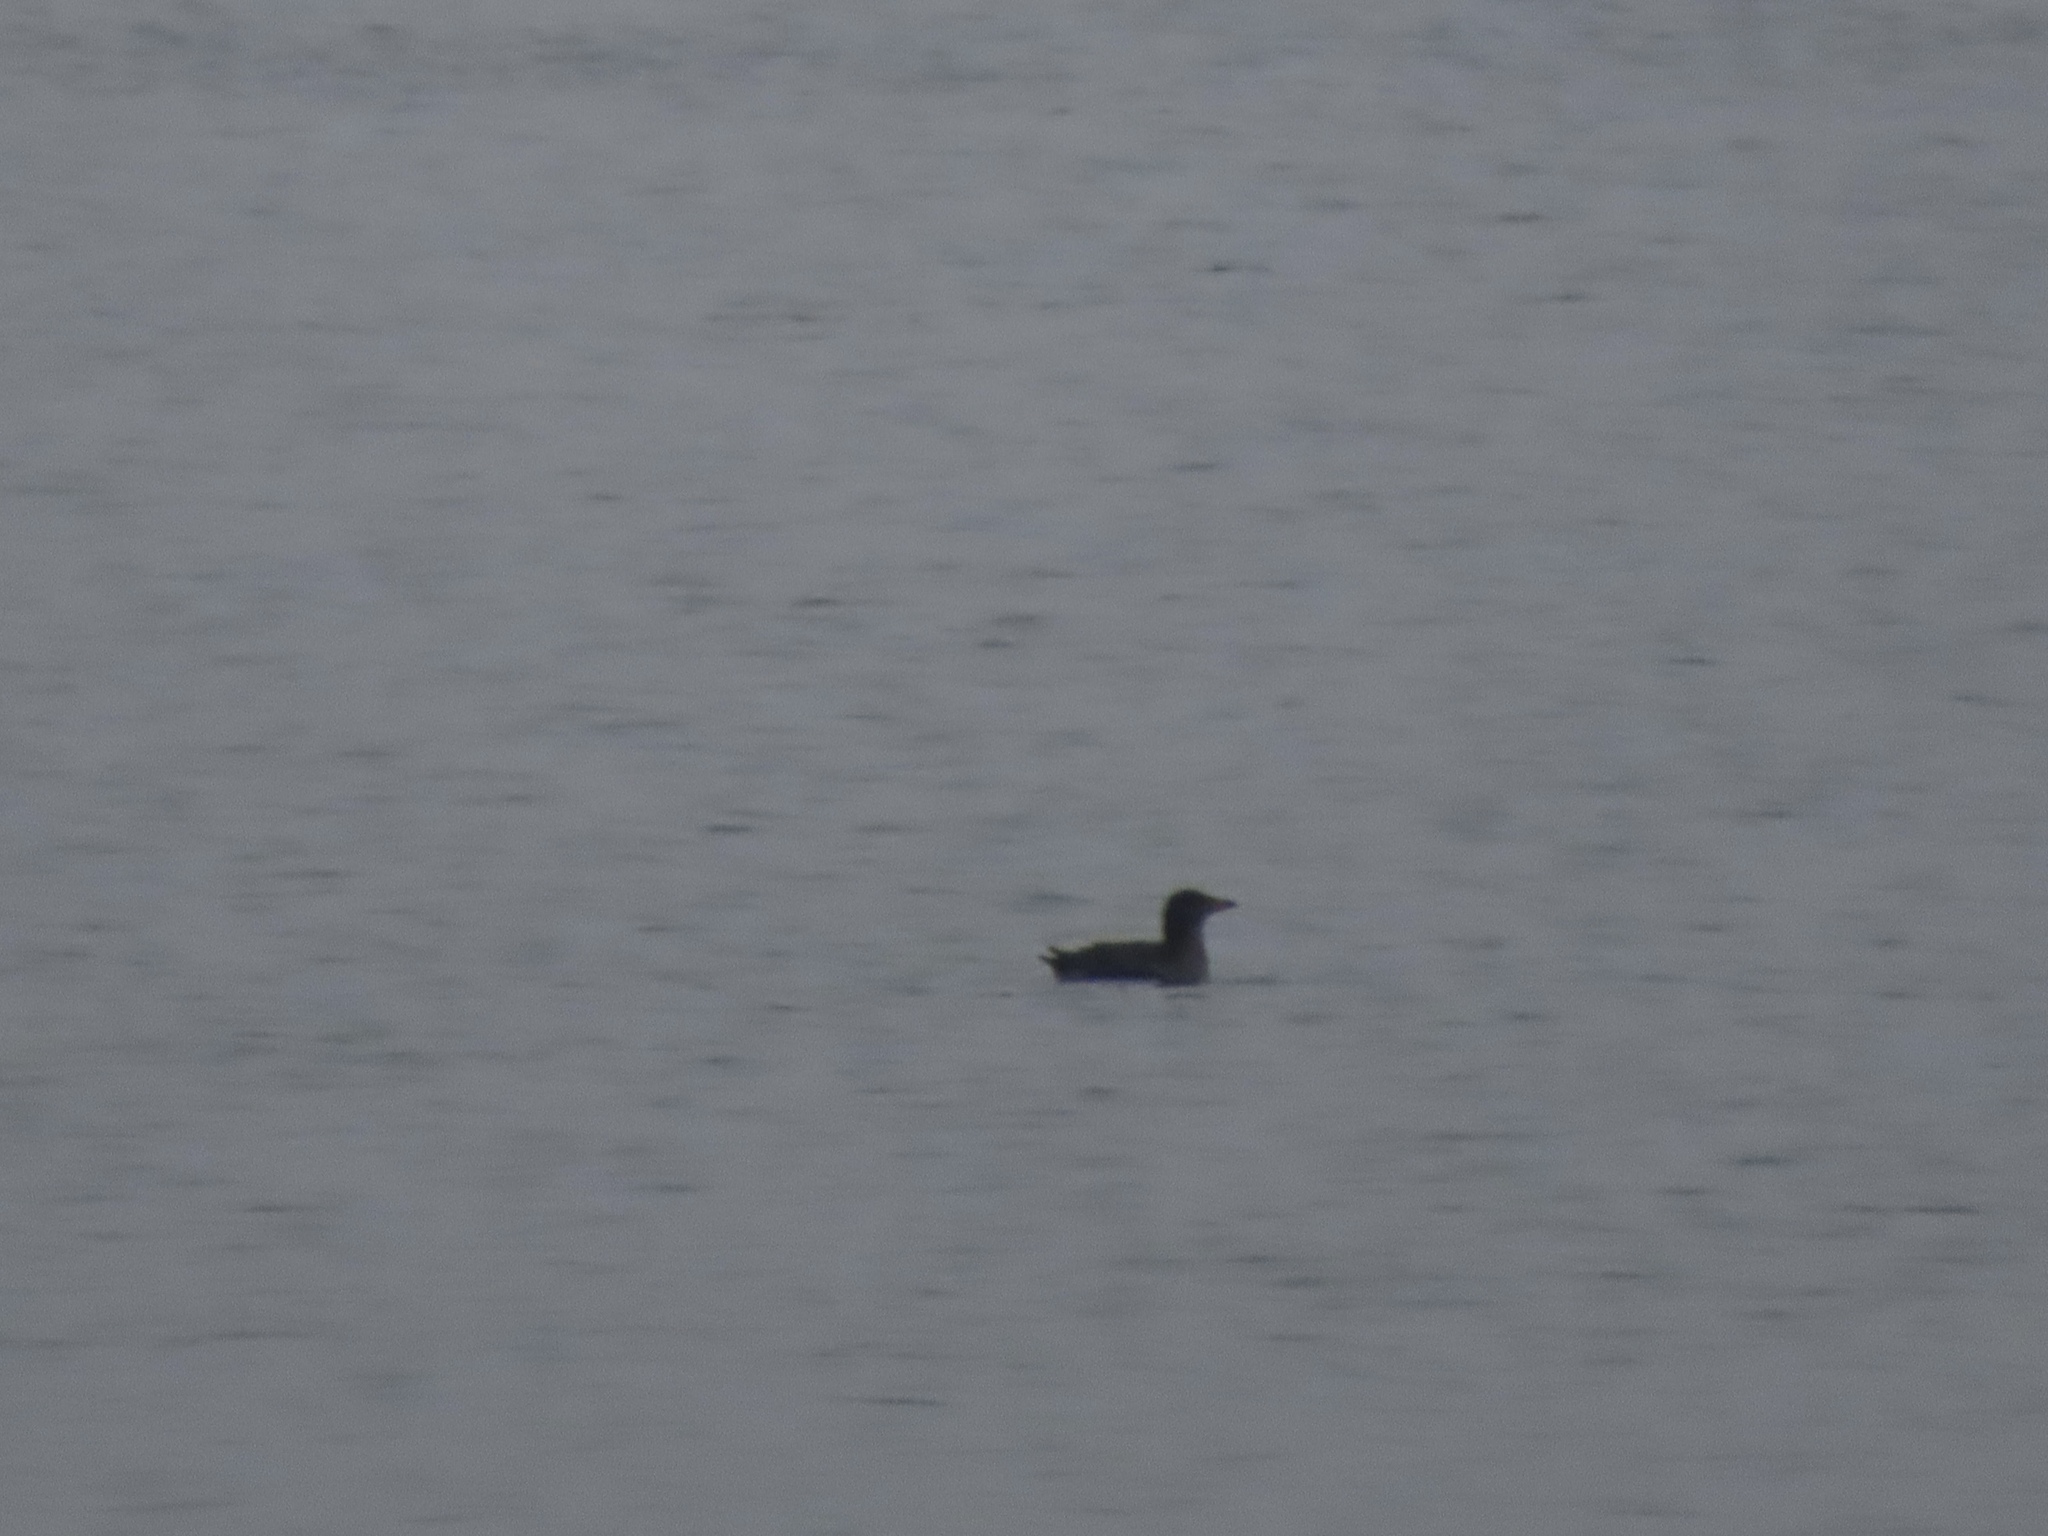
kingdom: Animalia
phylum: Chordata
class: Aves
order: Charadriiformes
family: Alcidae
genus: Cerorhinca
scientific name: Cerorhinca monocerata
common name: Rhinoceros auklet
